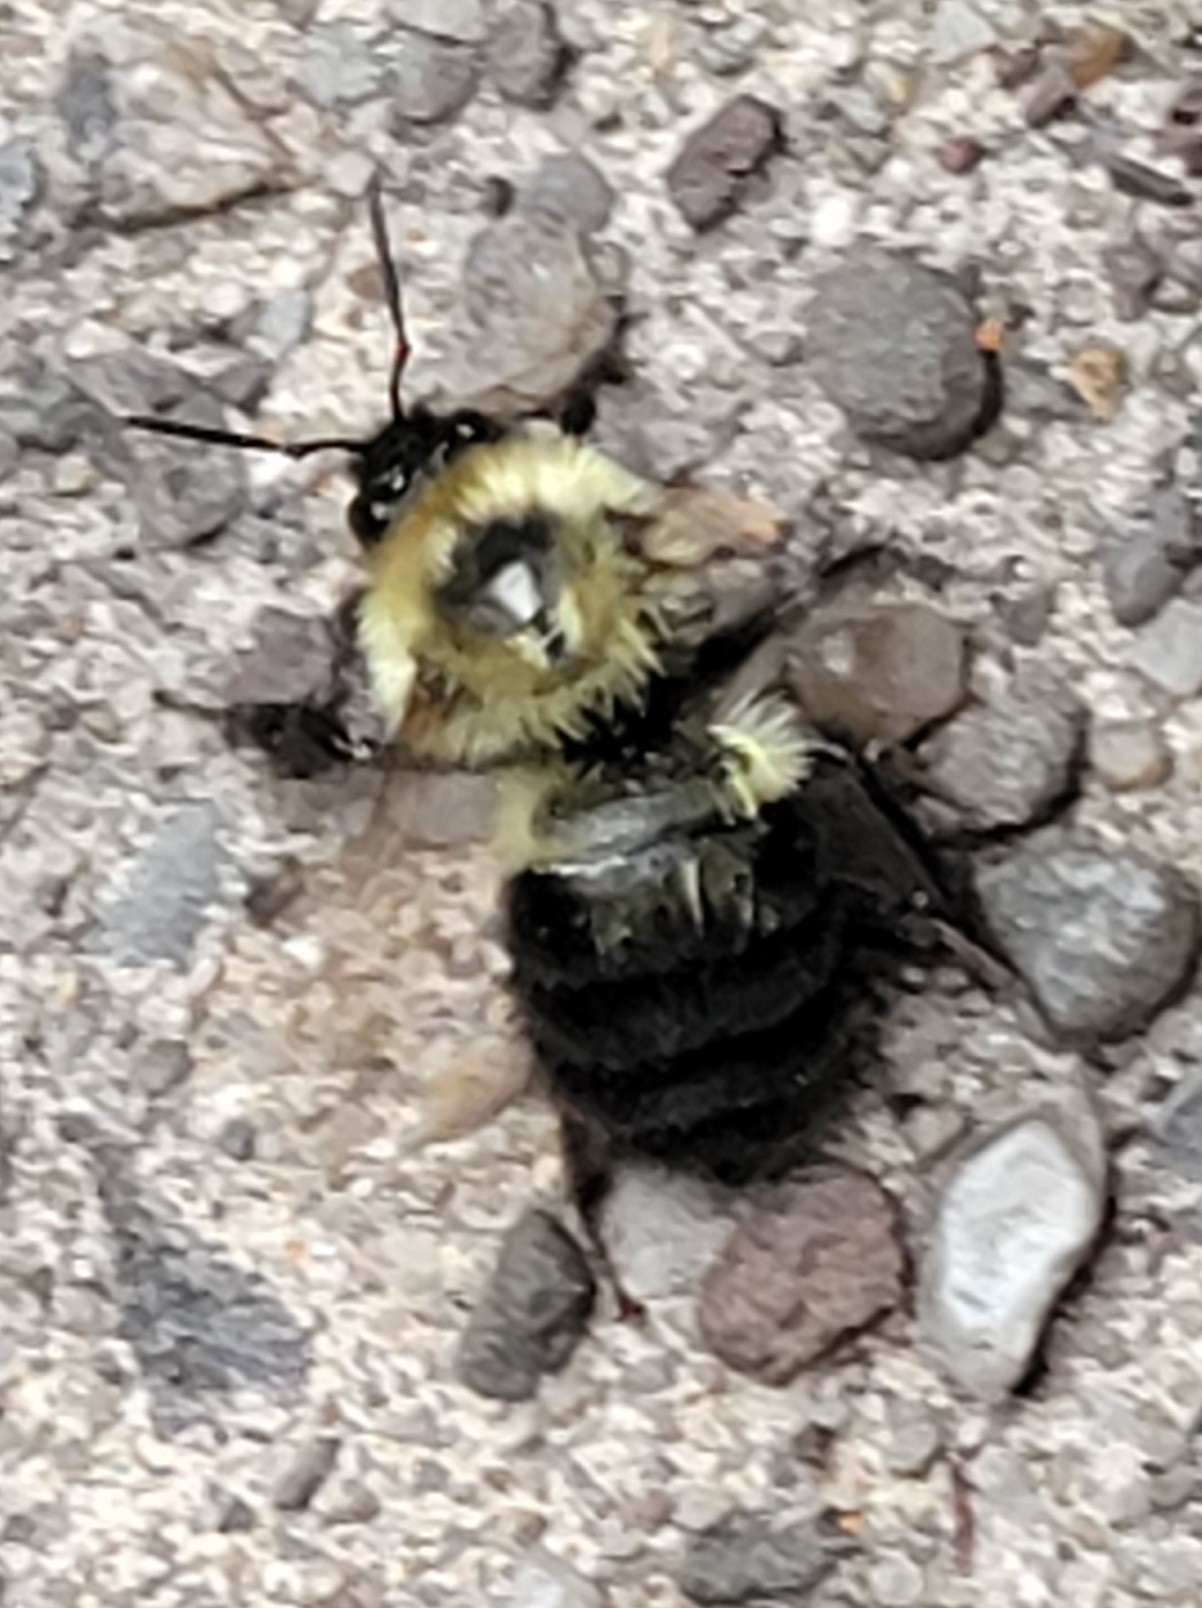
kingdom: Animalia
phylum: Arthropoda
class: Insecta
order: Hymenoptera
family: Apidae
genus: Bombus
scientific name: Bombus bimaculatus
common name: Two-spotted bumble bee
